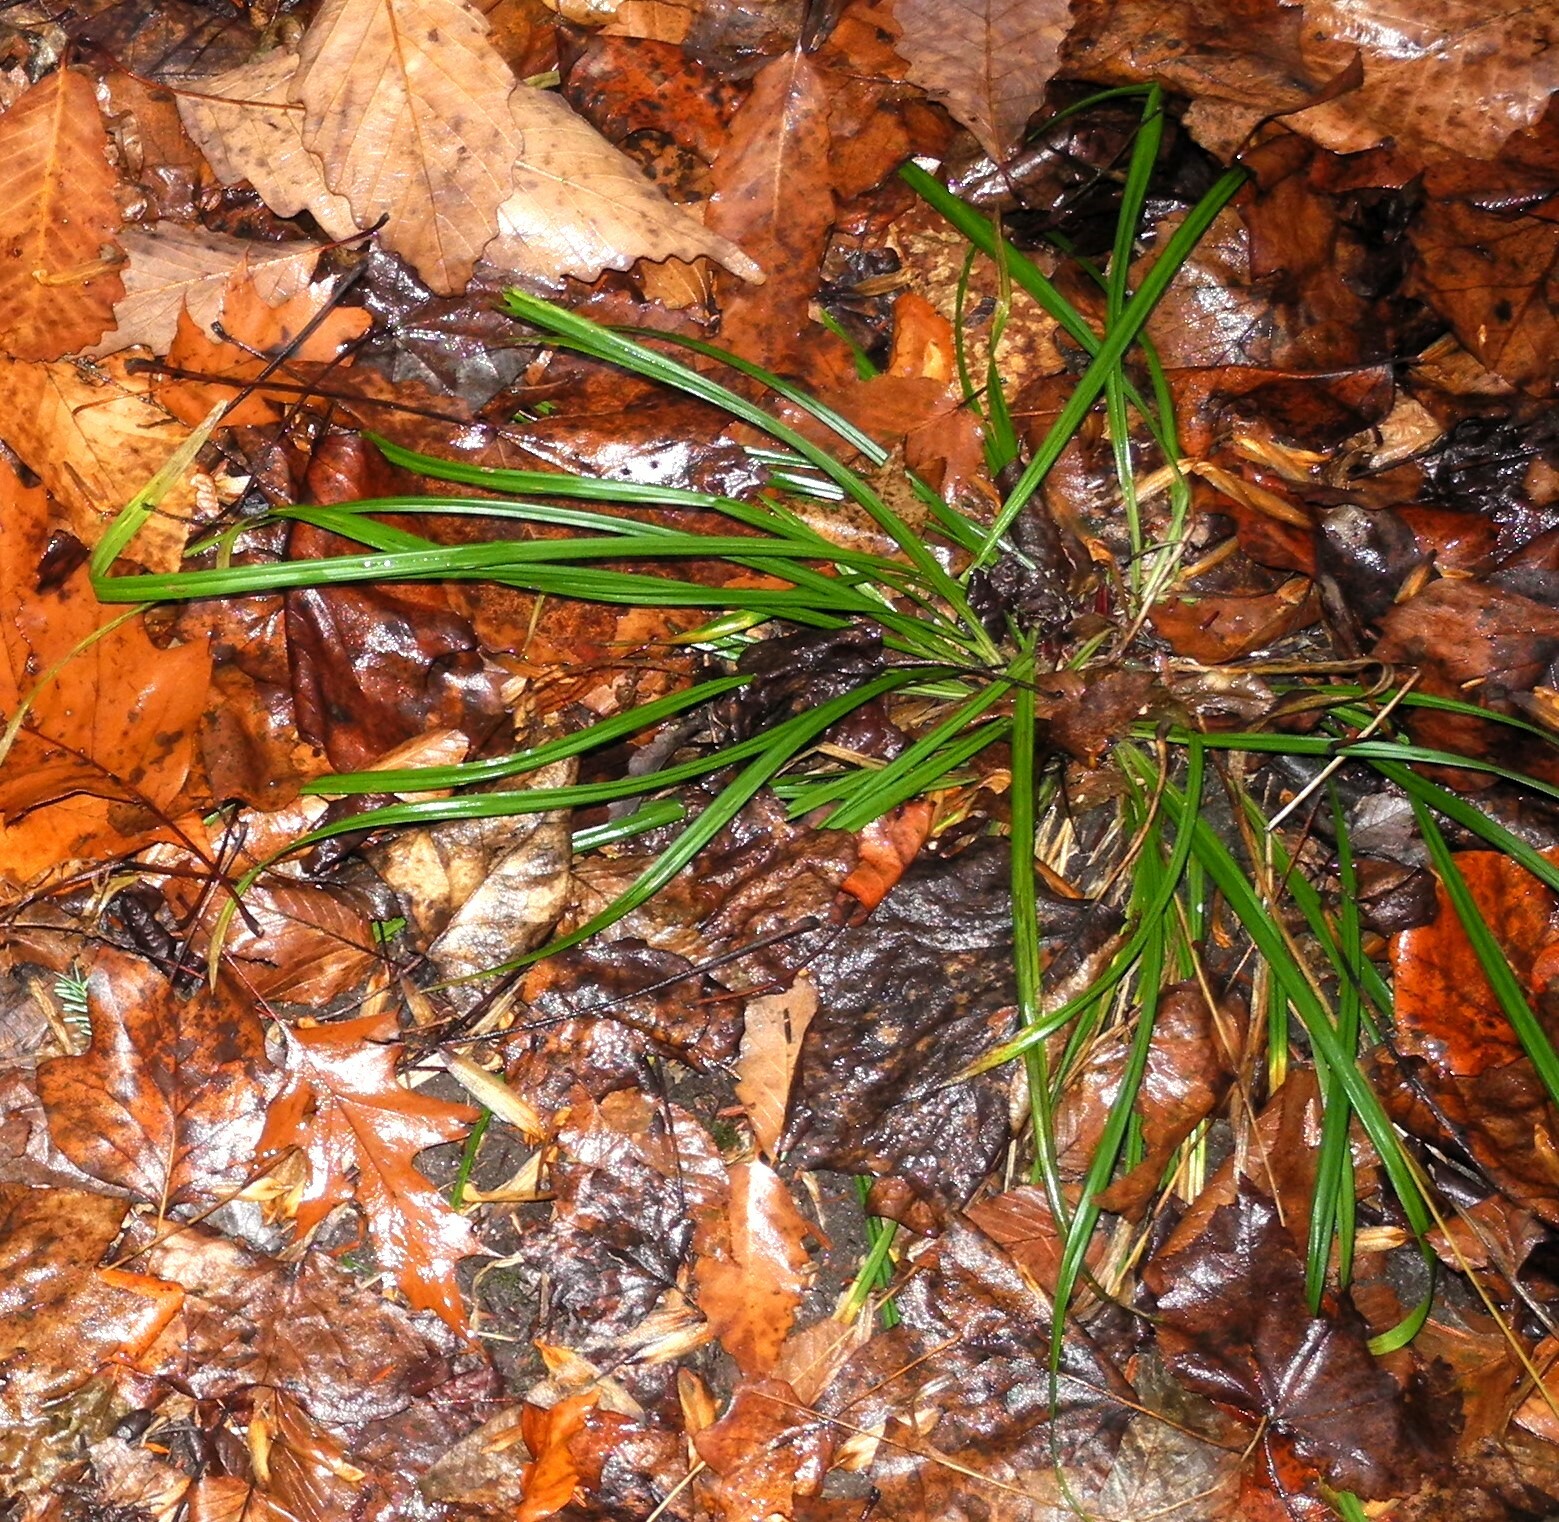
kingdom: Plantae
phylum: Tracheophyta
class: Liliopsida
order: Poales
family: Cyperaceae
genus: Carex
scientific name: Carex
